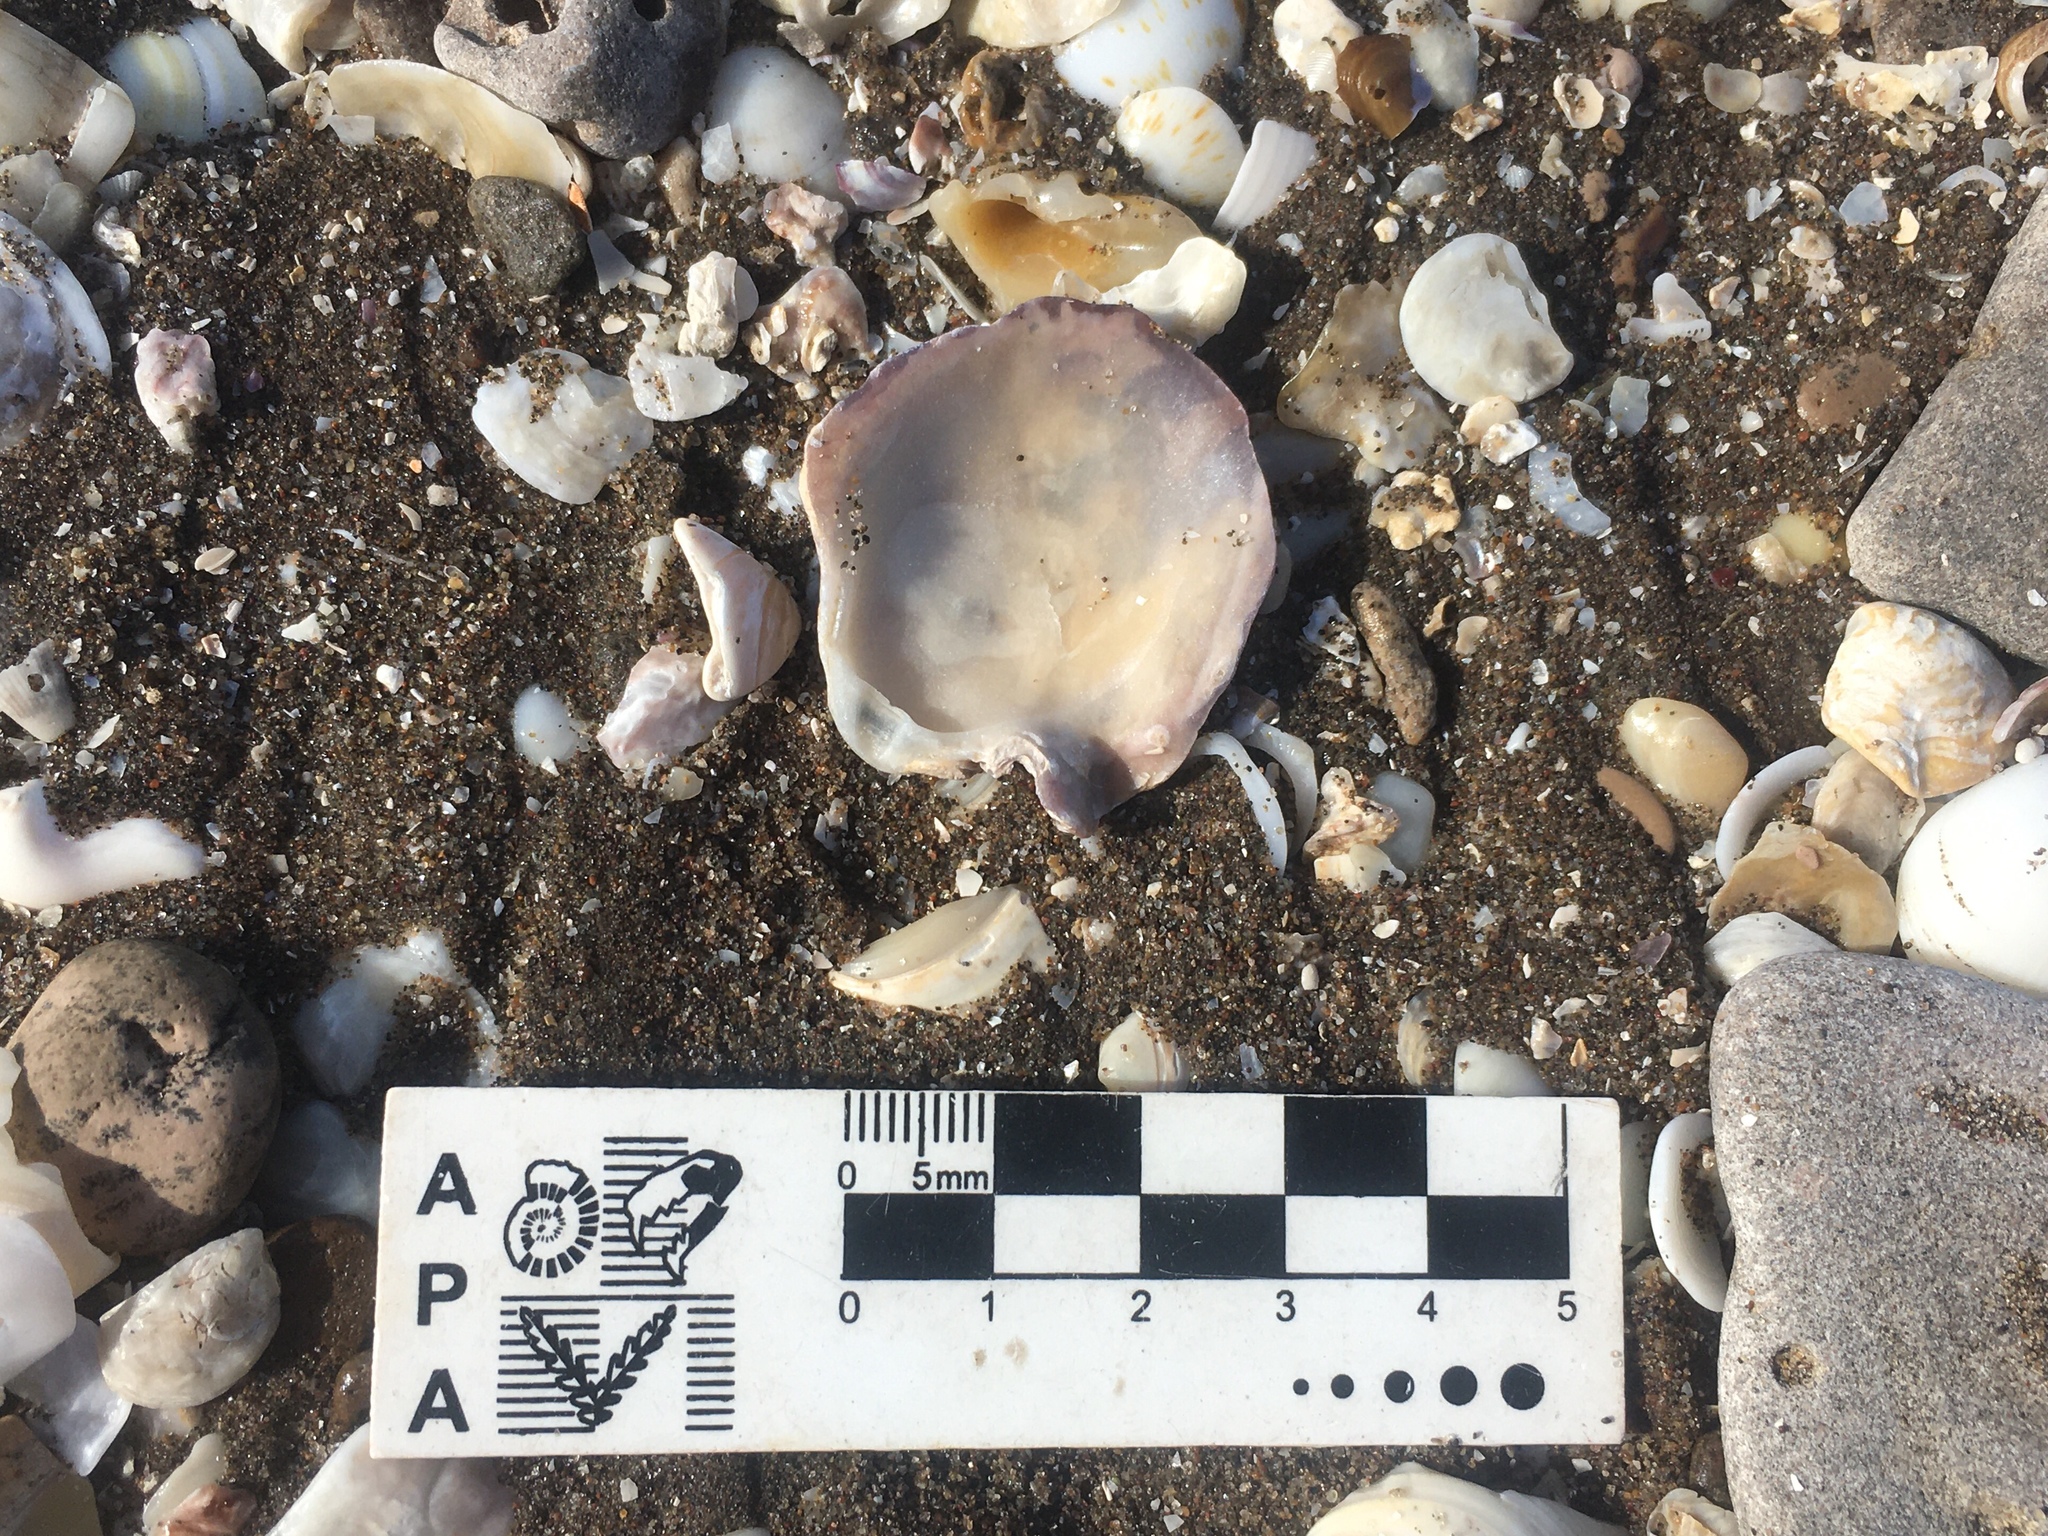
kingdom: Animalia
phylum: Mollusca
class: Bivalvia
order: Ostreida
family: Ostreidae
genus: Ostrea
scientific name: Ostrea puelchana
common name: Argentine flat oyster
